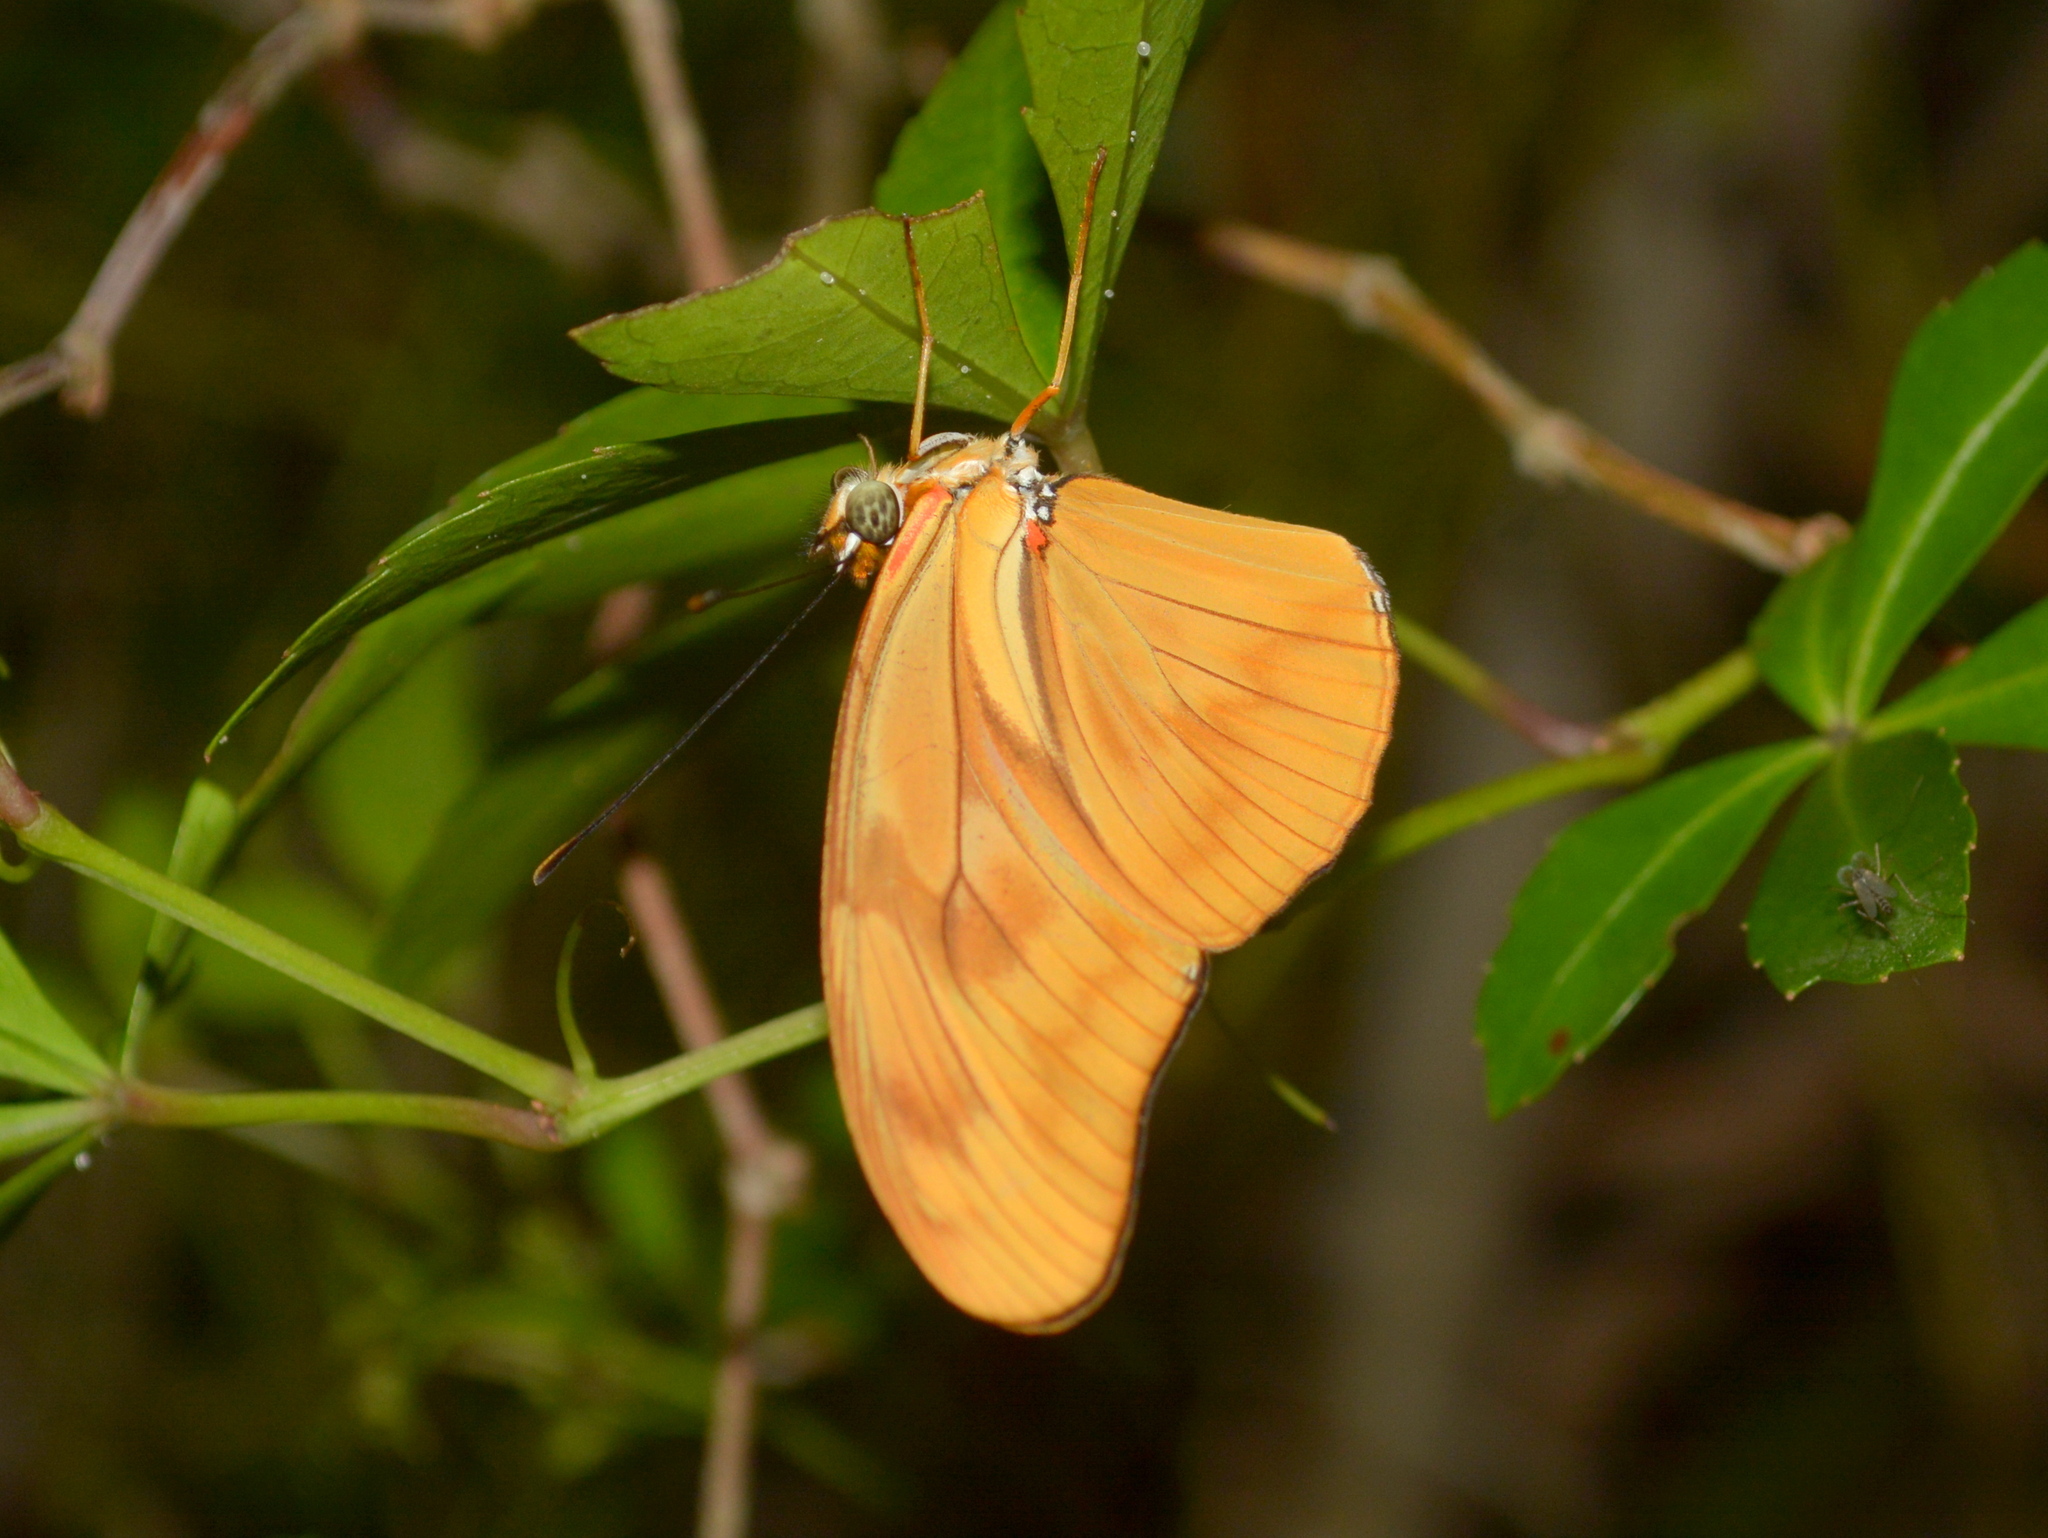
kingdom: Animalia
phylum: Arthropoda
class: Insecta
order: Lepidoptera
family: Nymphalidae
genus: Dryas
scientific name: Dryas iulia
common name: Flambeau
